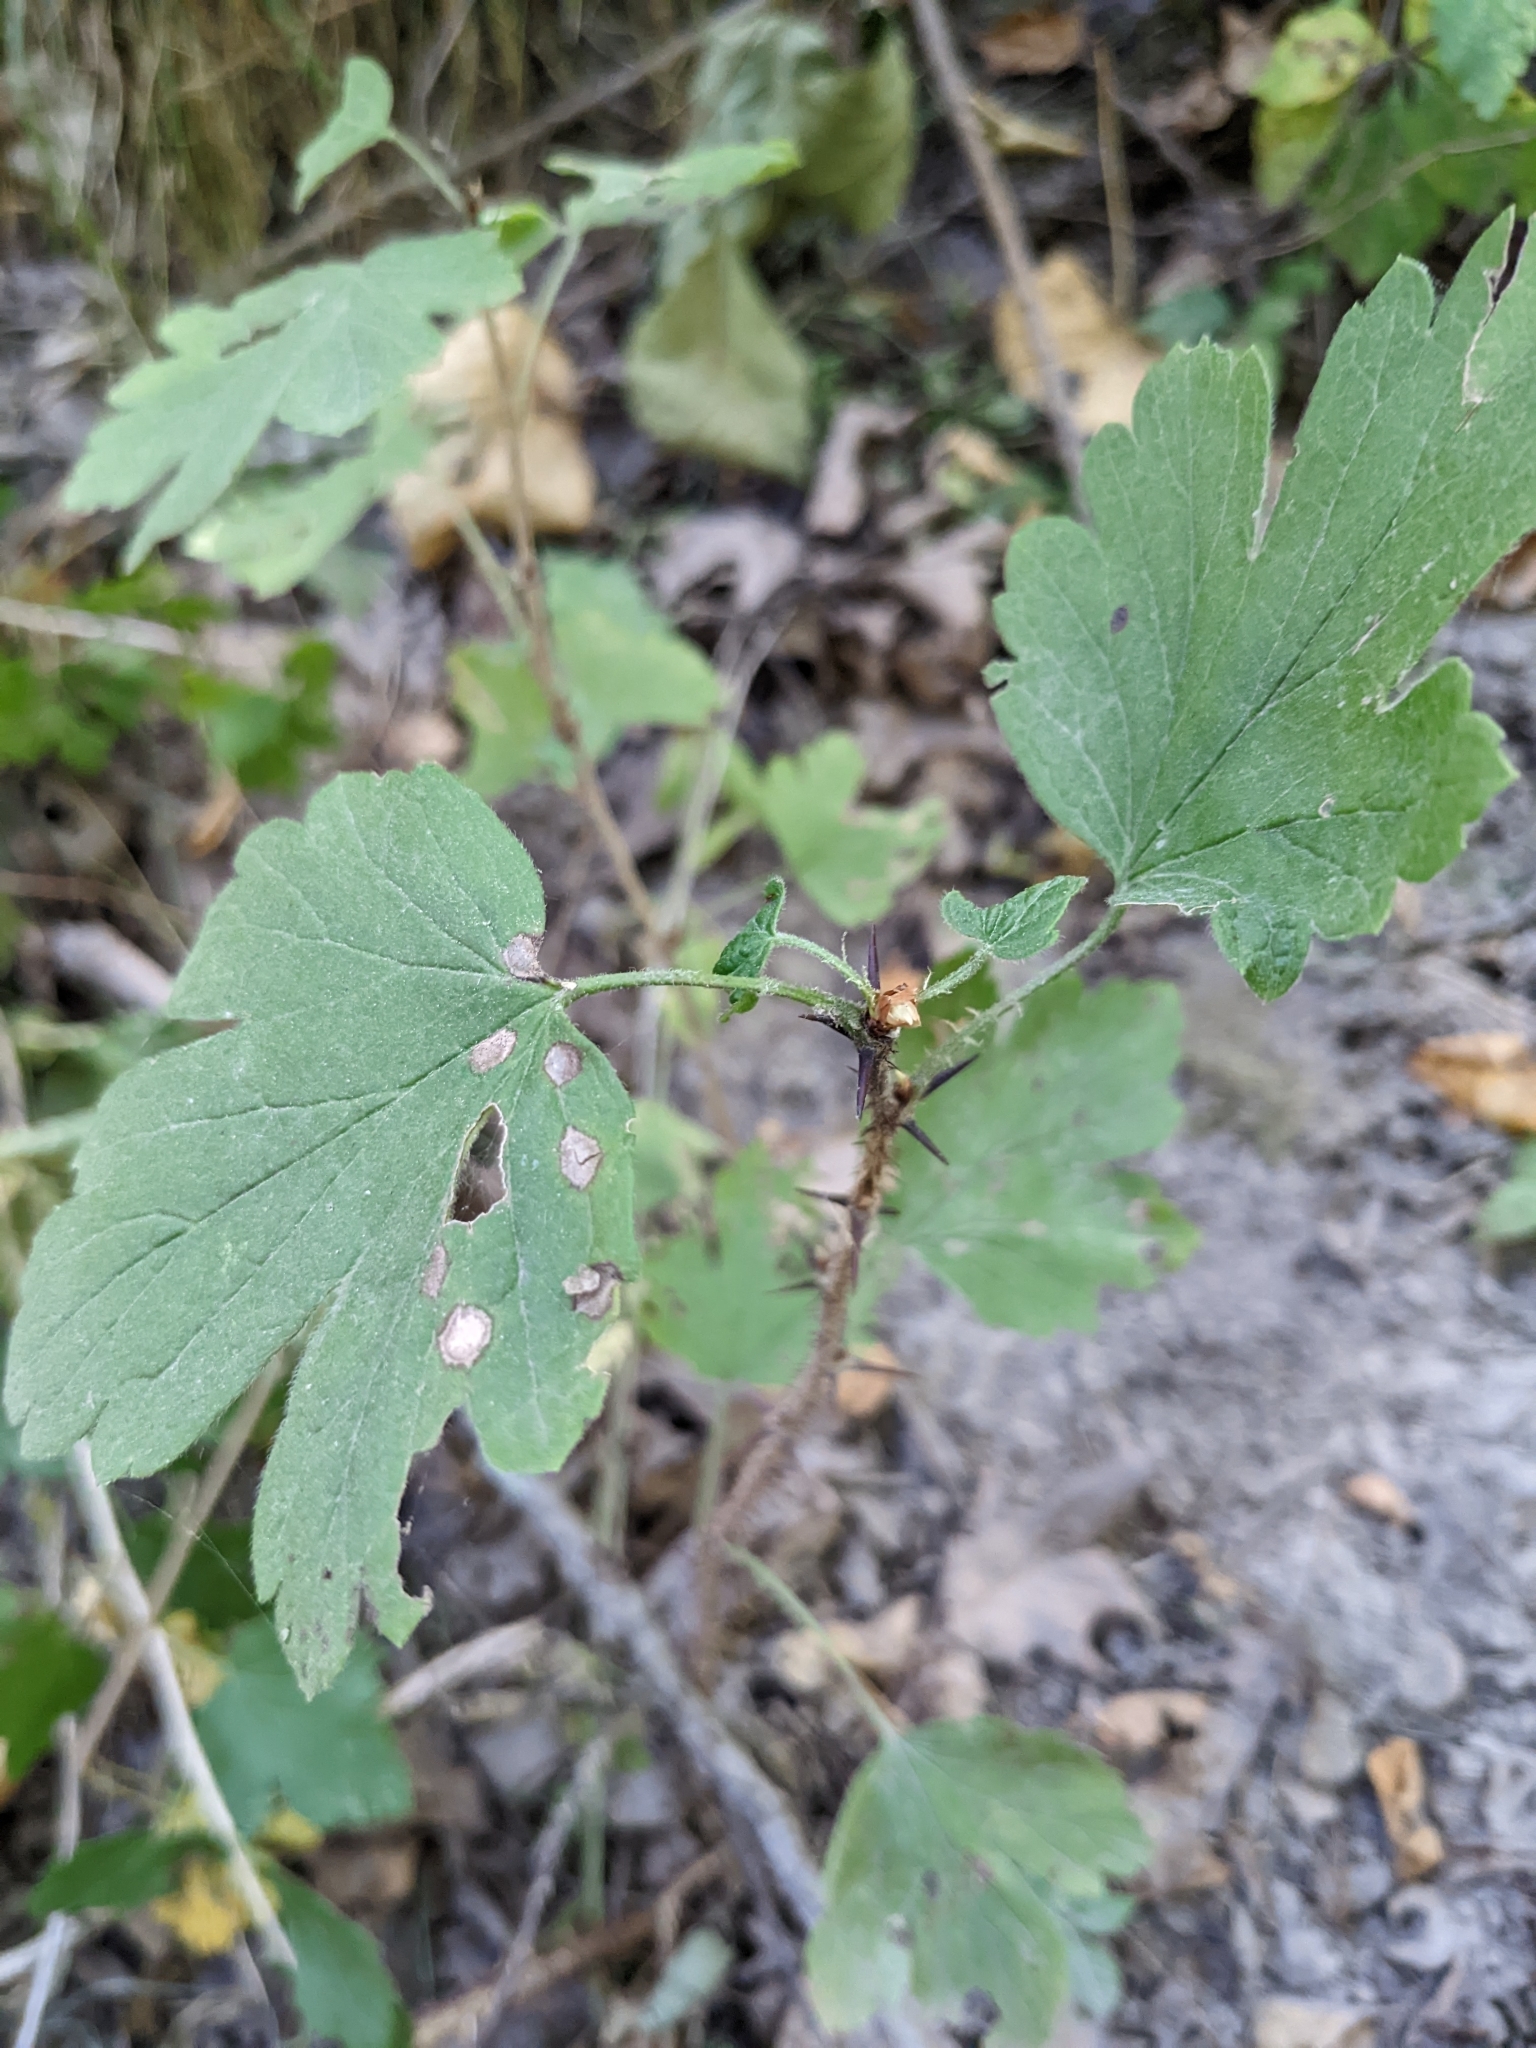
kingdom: Plantae
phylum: Tracheophyta
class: Magnoliopsida
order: Saxifragales
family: Grossulariaceae
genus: Ribes
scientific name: Ribes missouriense
